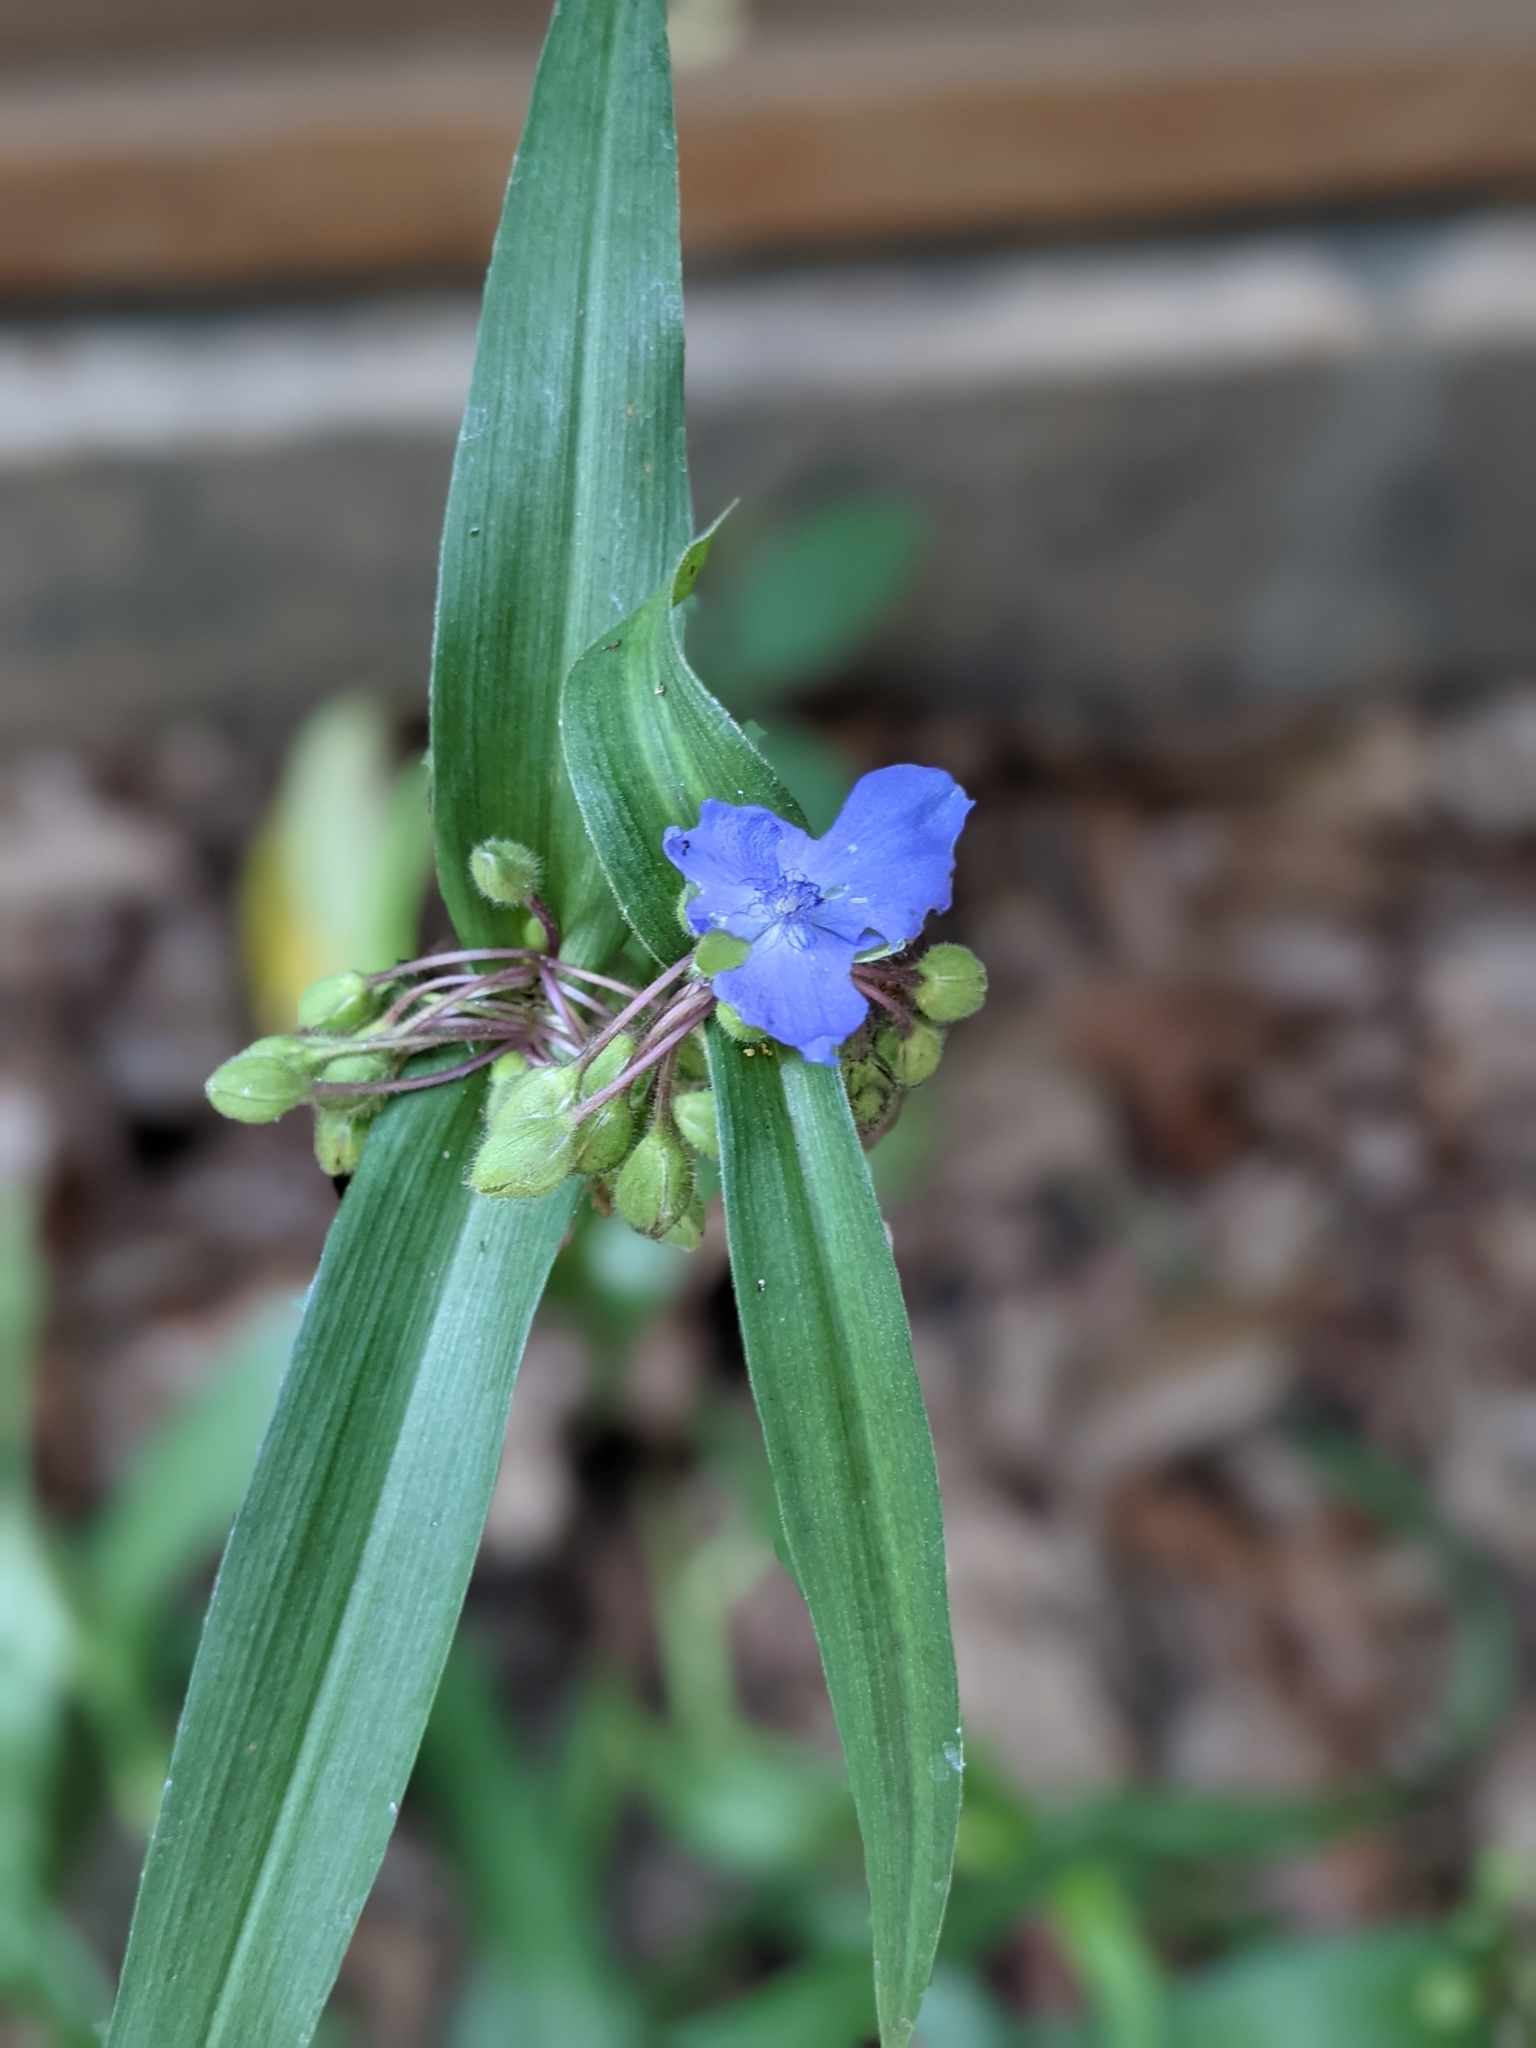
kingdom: Plantae
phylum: Tracheophyta
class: Liliopsida
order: Commelinales
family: Commelinaceae
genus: Tradescantia
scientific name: Tradescantia virginiana
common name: Spiderwort
